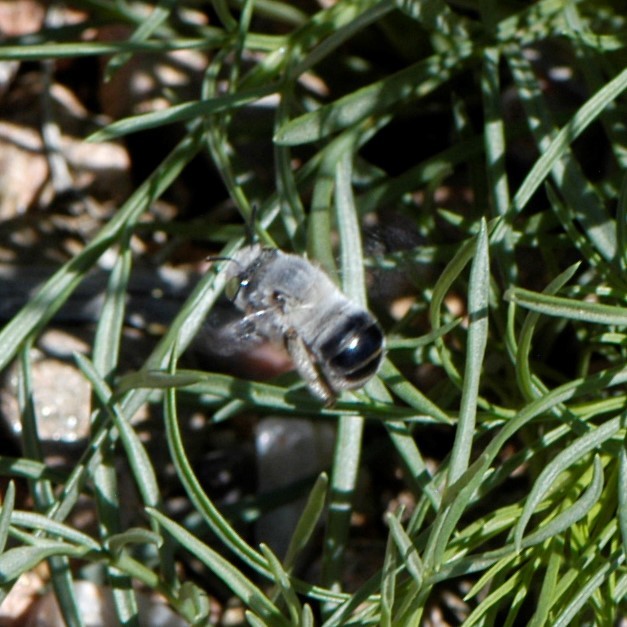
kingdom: Animalia
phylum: Arthropoda
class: Insecta
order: Hymenoptera
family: Apidae
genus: Anthophora
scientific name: Anthophora
